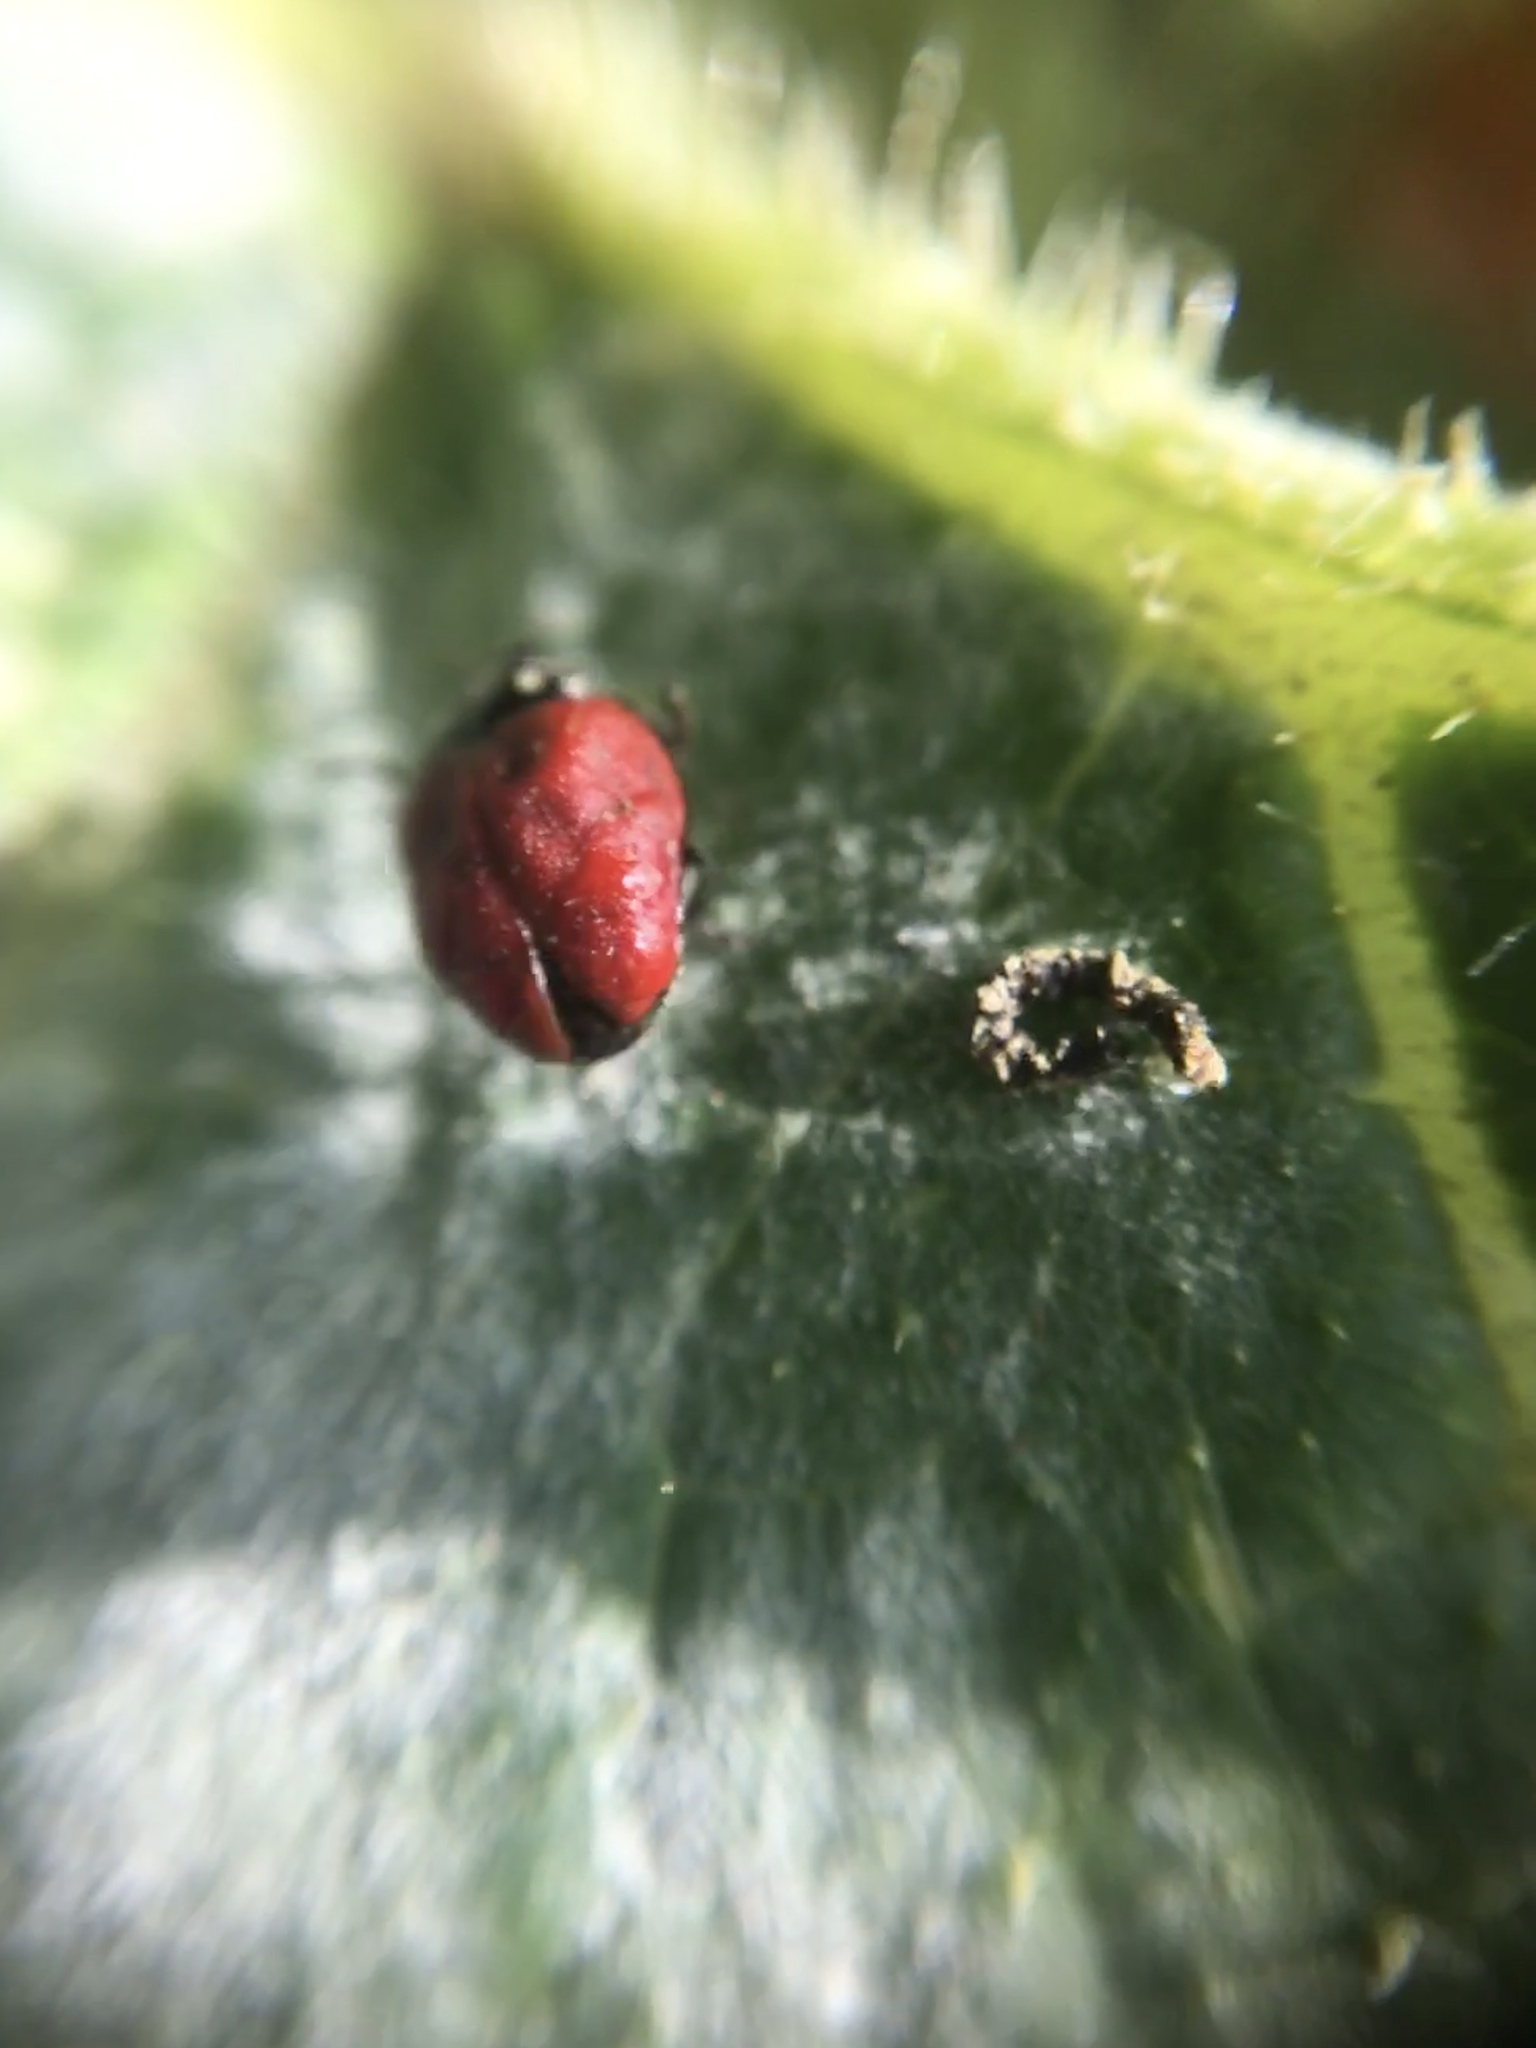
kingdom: Animalia
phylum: Arthropoda
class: Insecta
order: Coleoptera
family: Coccinellidae
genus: Cycloneda
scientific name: Cycloneda sanguinea
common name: Ladybird beetle
